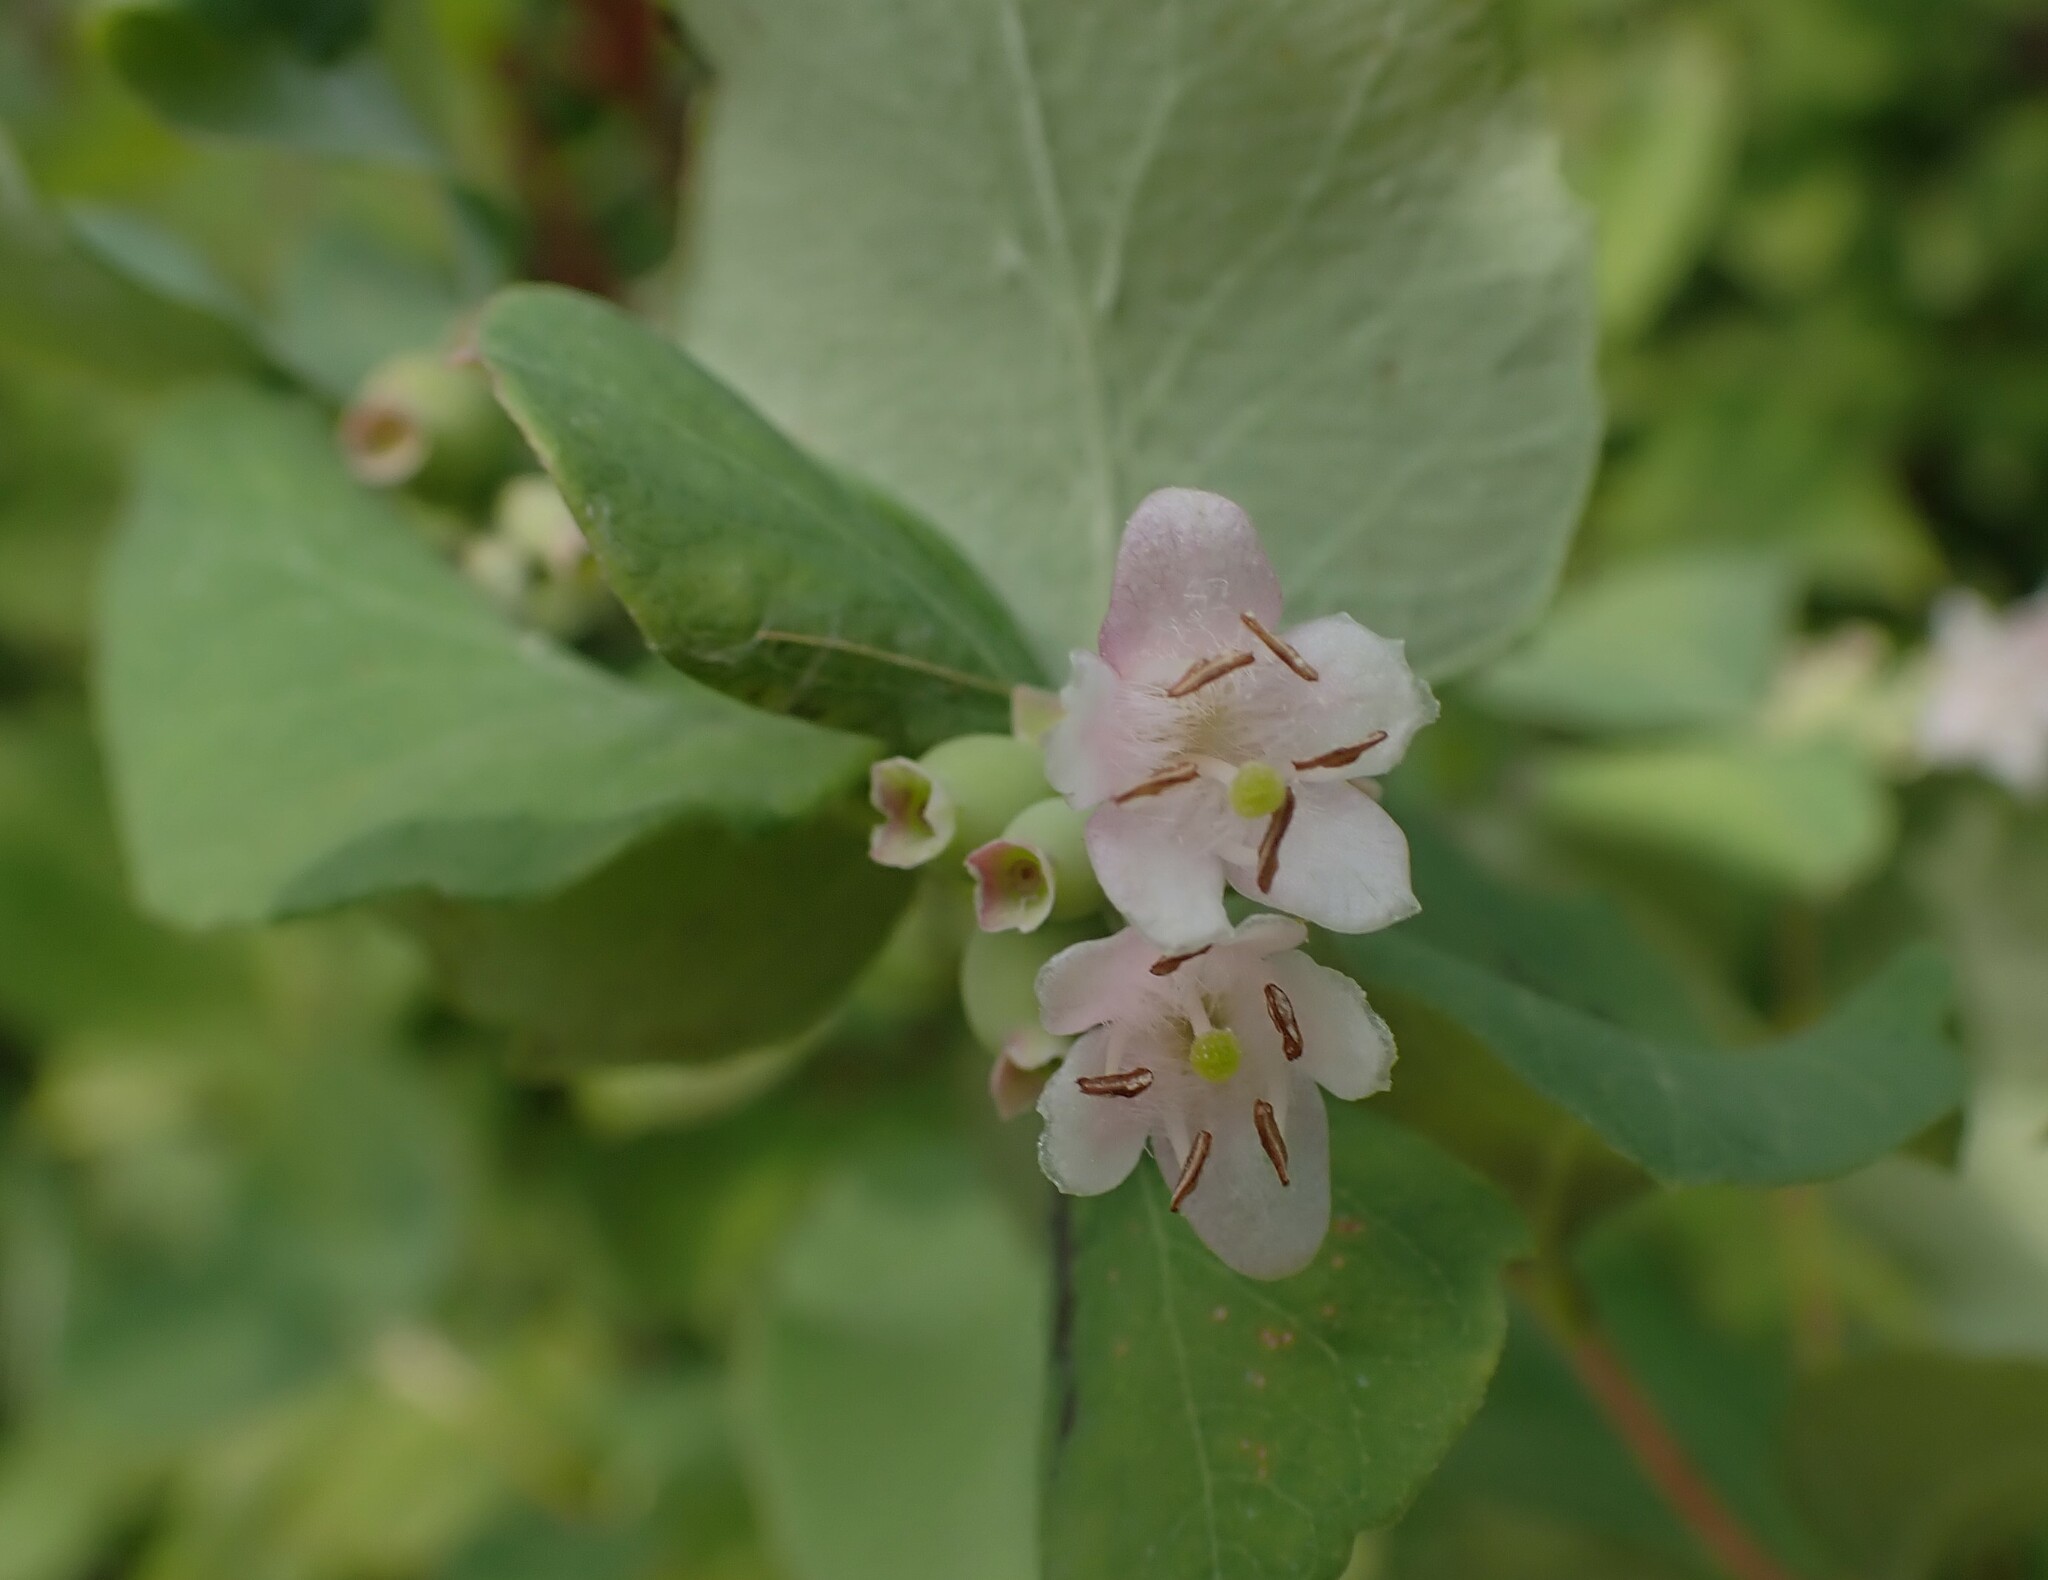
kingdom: Plantae
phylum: Tracheophyta
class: Magnoliopsida
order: Dipsacales
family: Caprifoliaceae
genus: Symphoricarpos
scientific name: Symphoricarpos occidentalis
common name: Wolfberry
